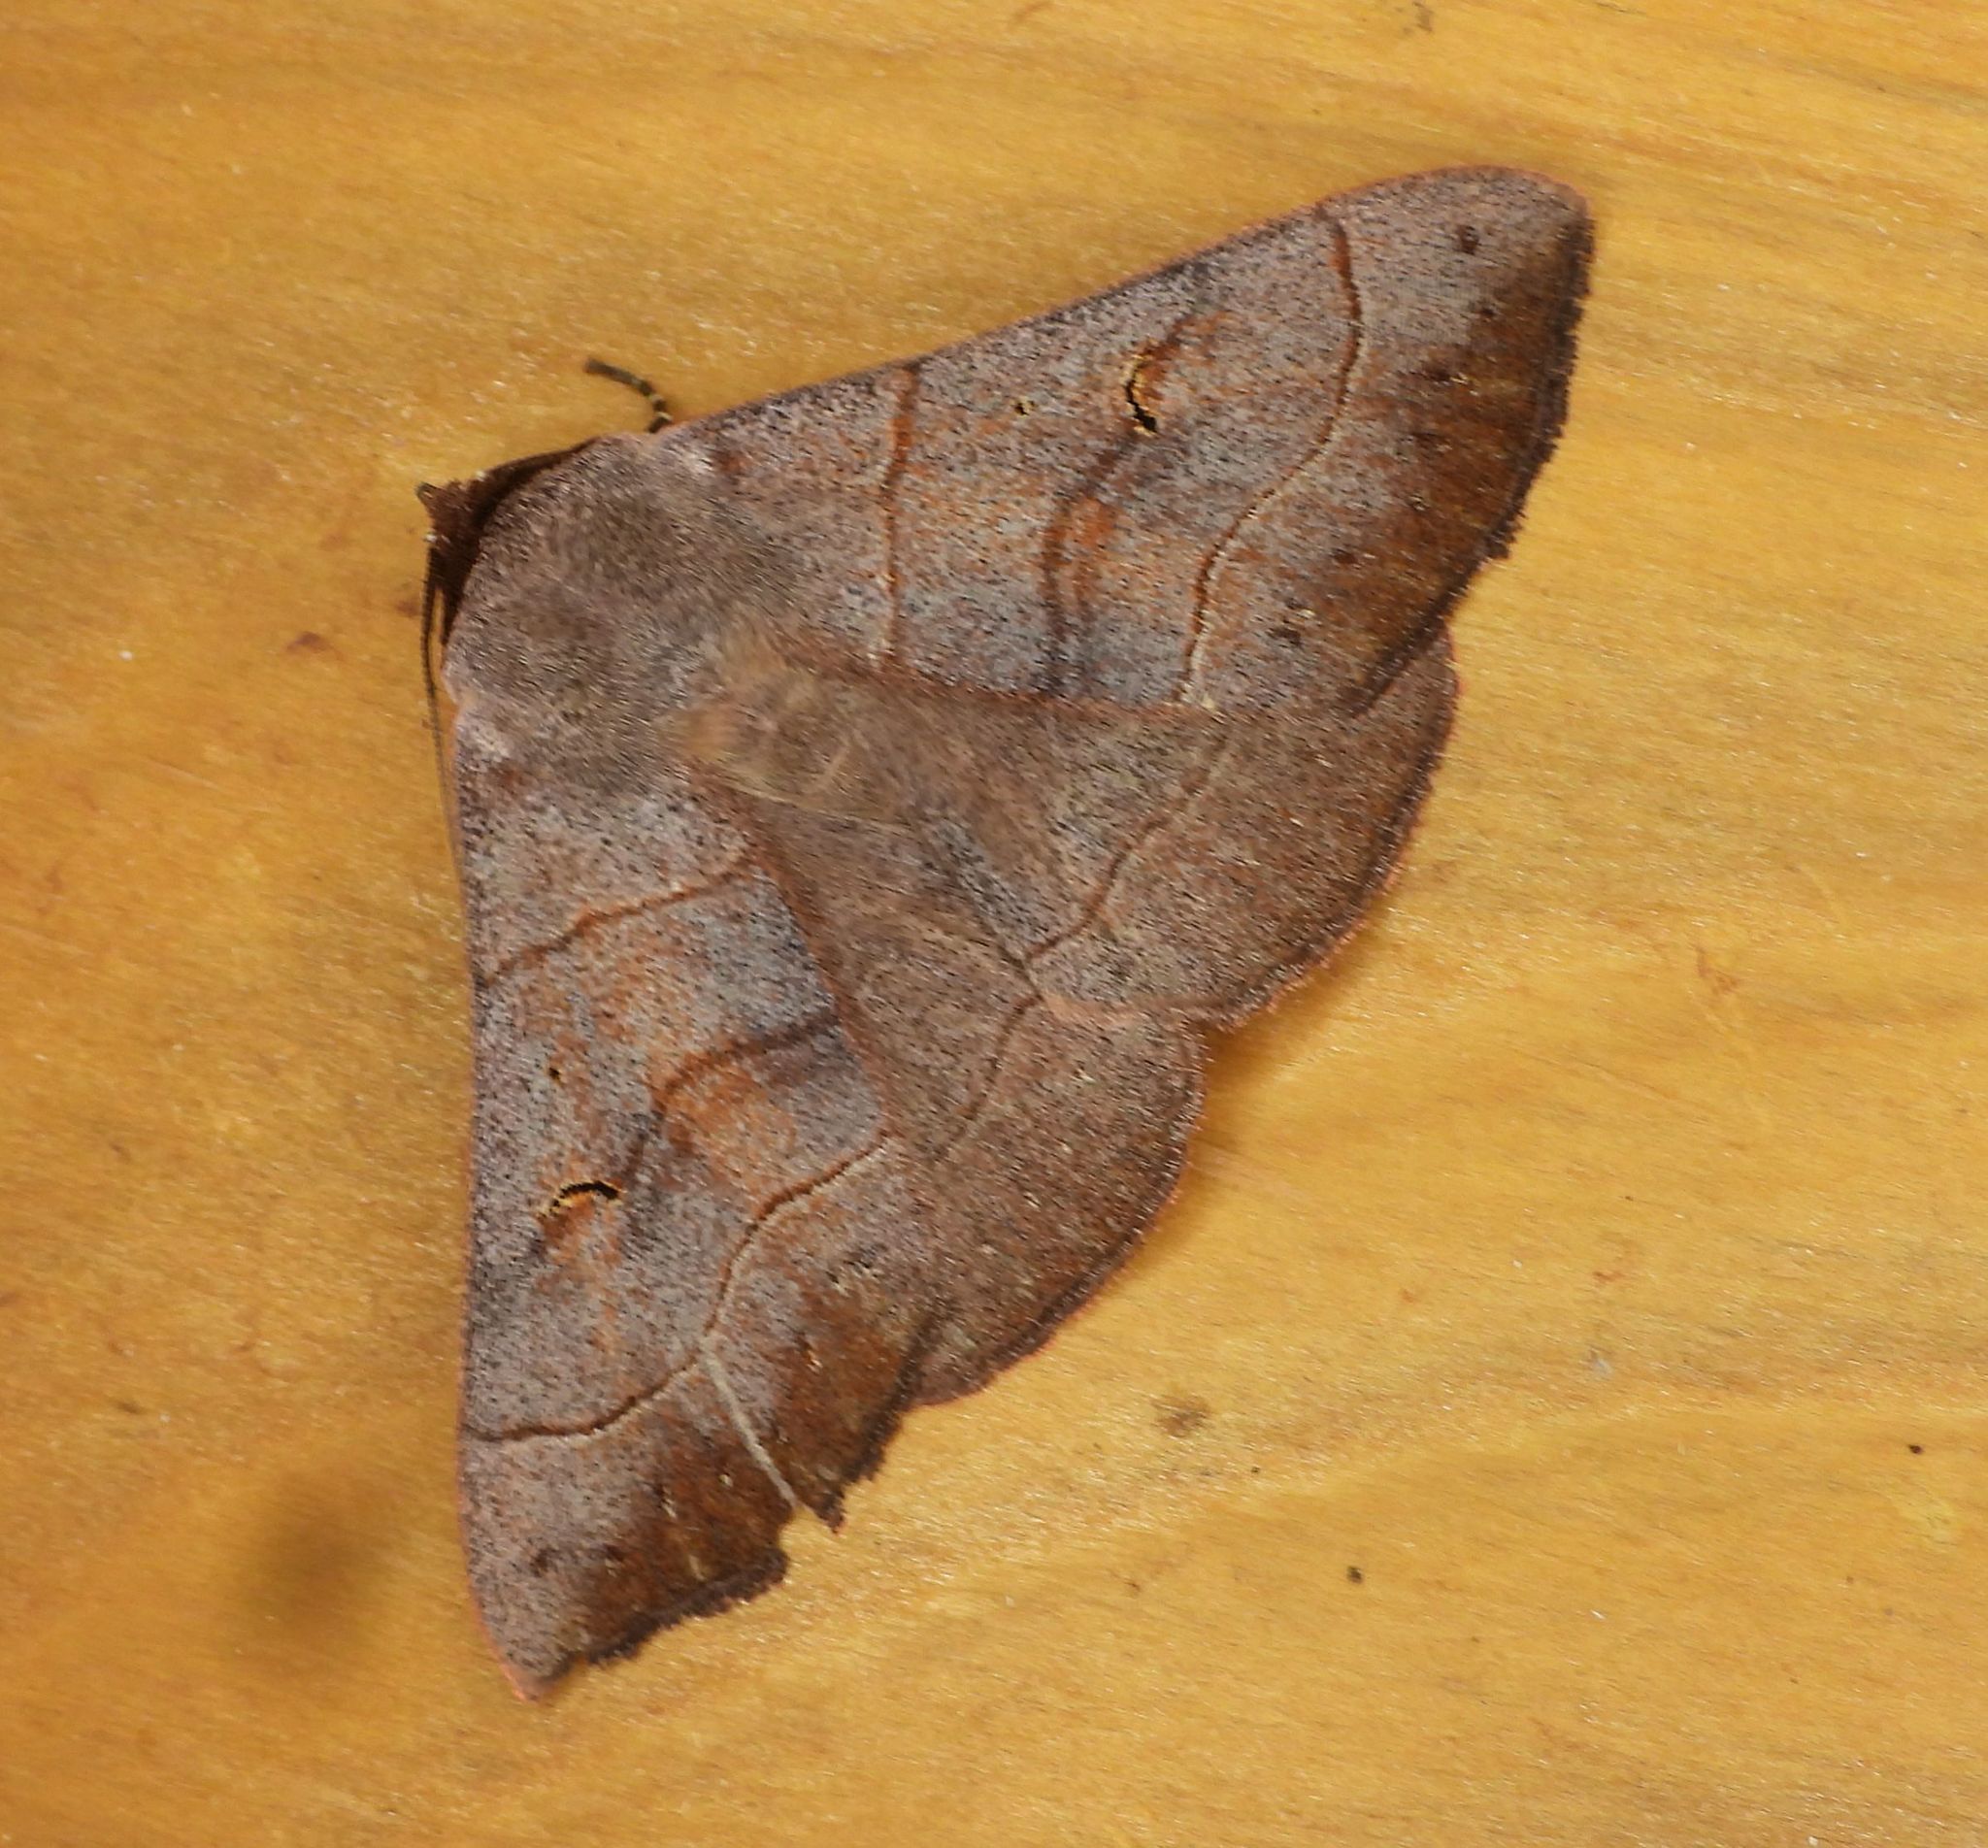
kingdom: Animalia
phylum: Arthropoda
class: Insecta
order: Lepidoptera
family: Erebidae
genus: Panopoda
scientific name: Panopoda rufimargo
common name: Red-lined panopoda moth
